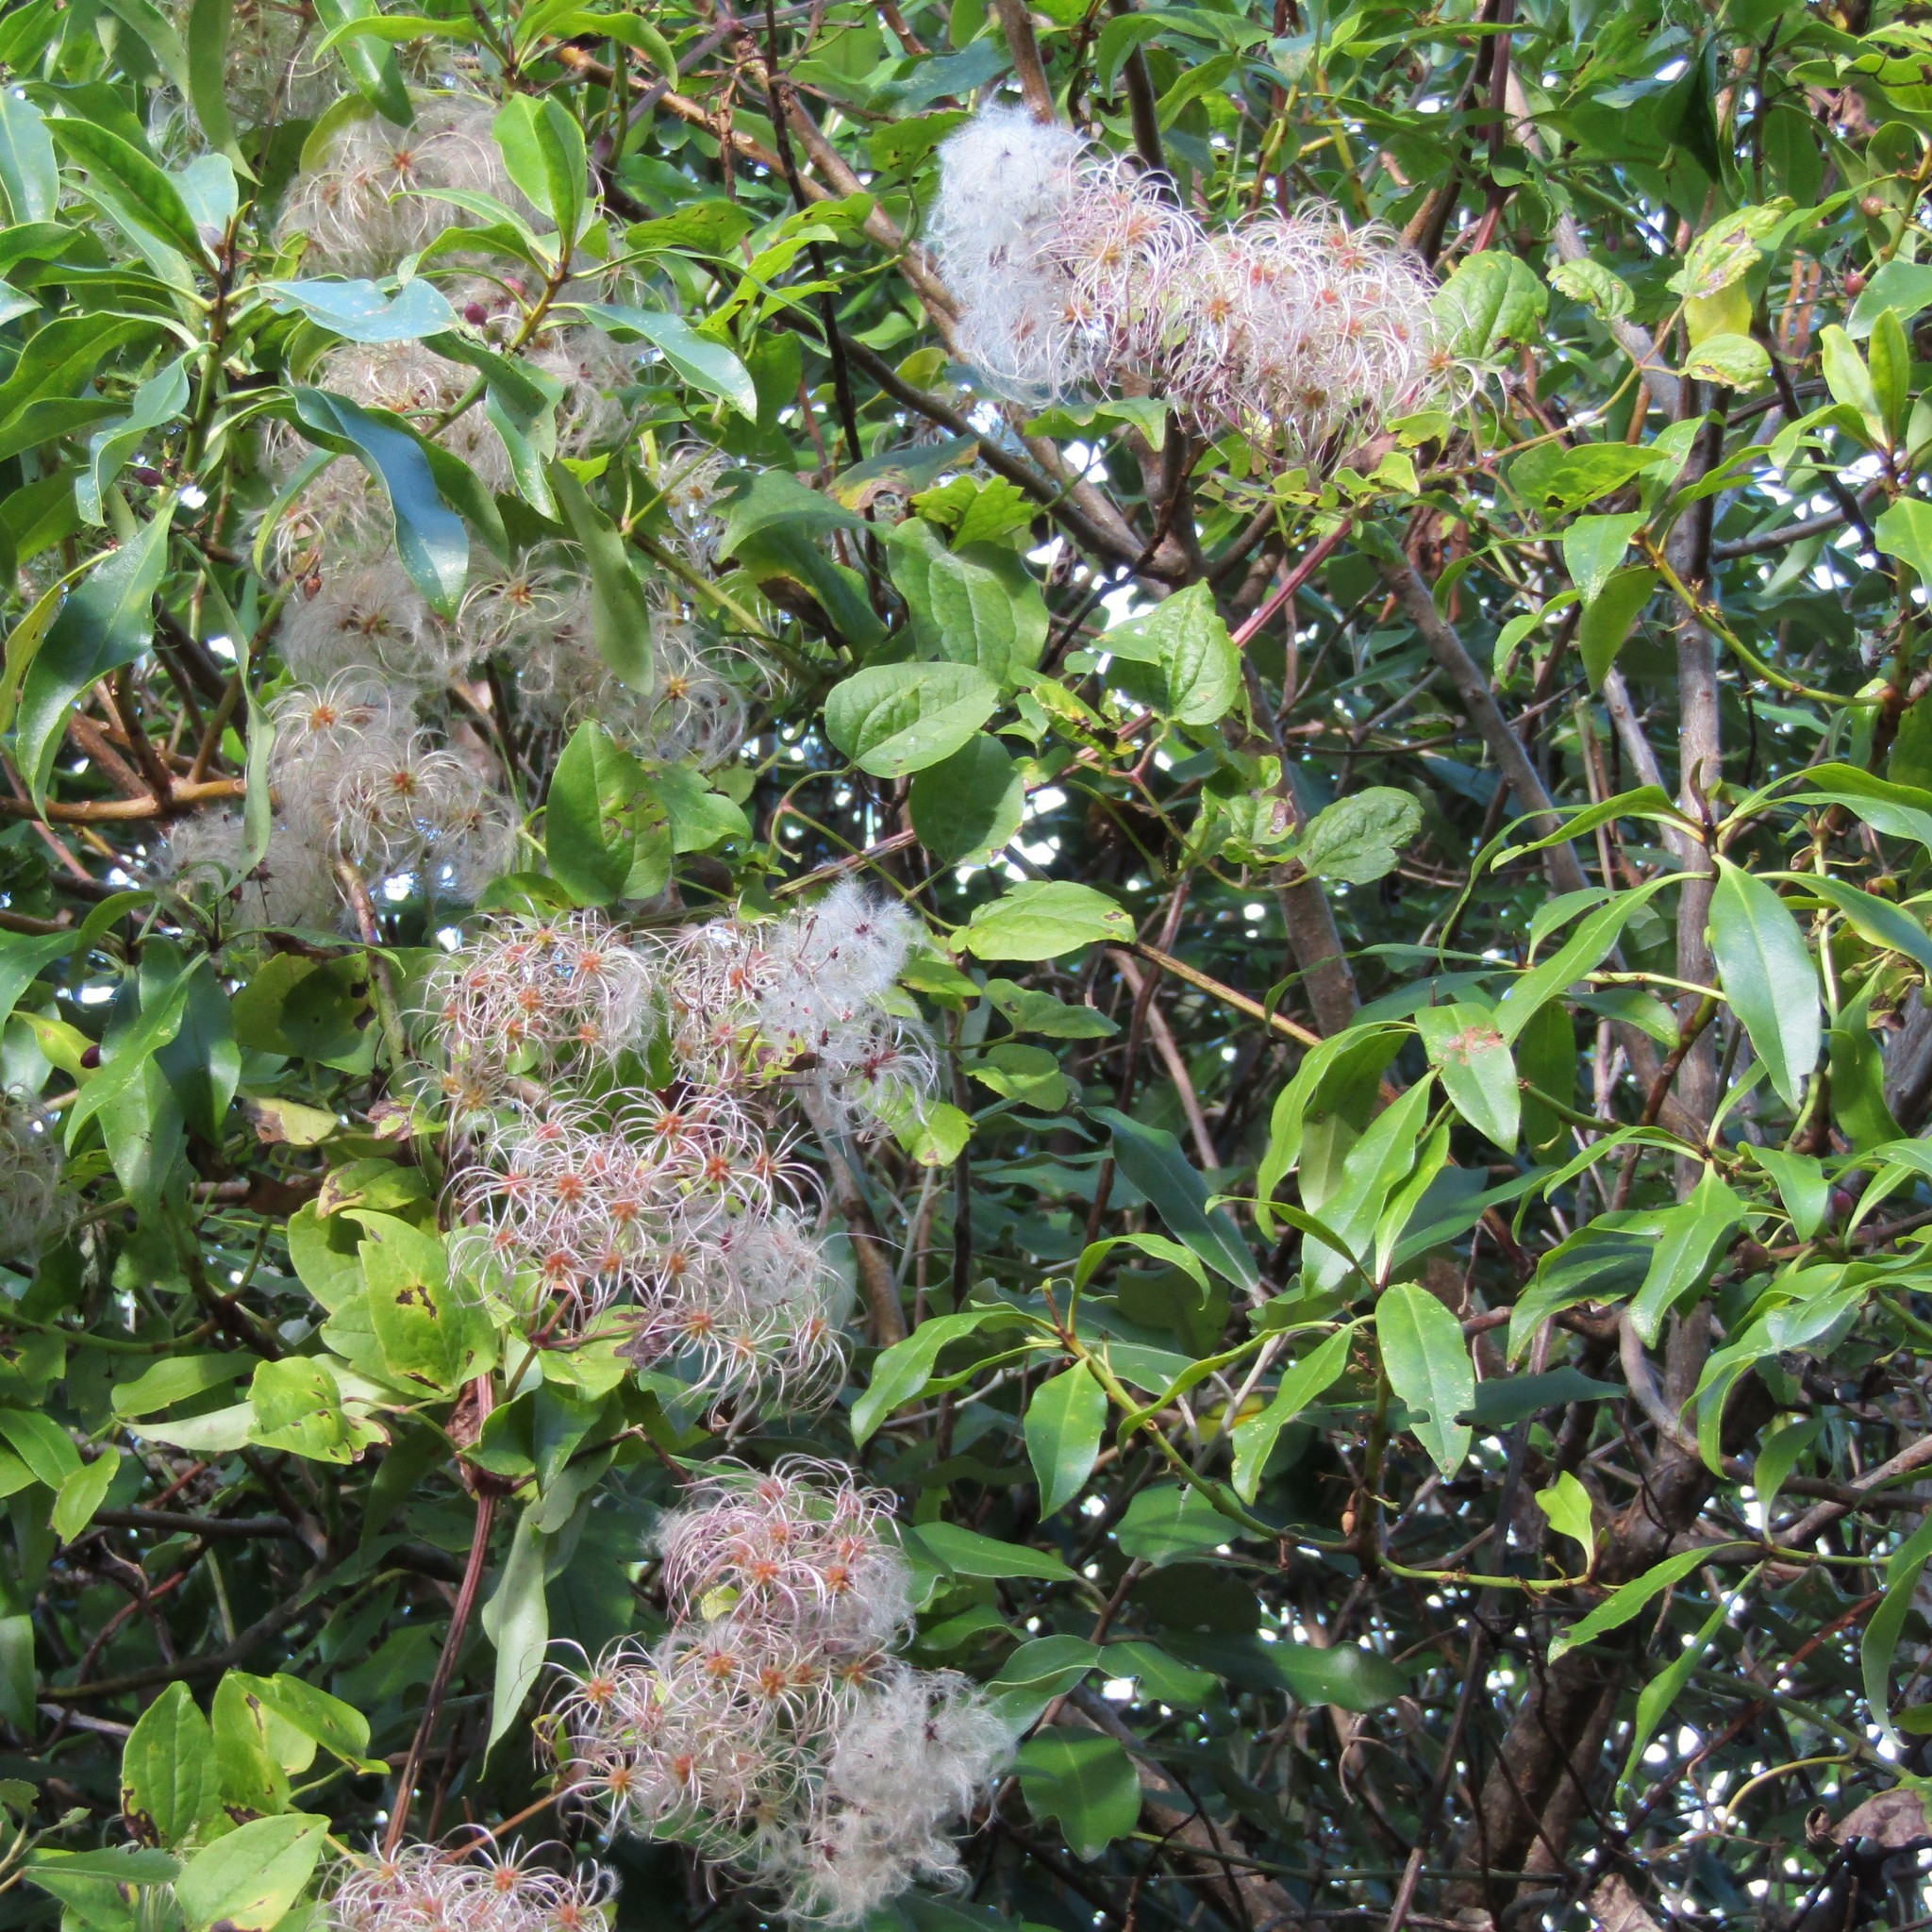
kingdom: Plantae
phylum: Tracheophyta
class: Magnoliopsida
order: Ranunculales
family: Ranunculaceae
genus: Clematis
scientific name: Clematis vitalba
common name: Evergreen clematis
